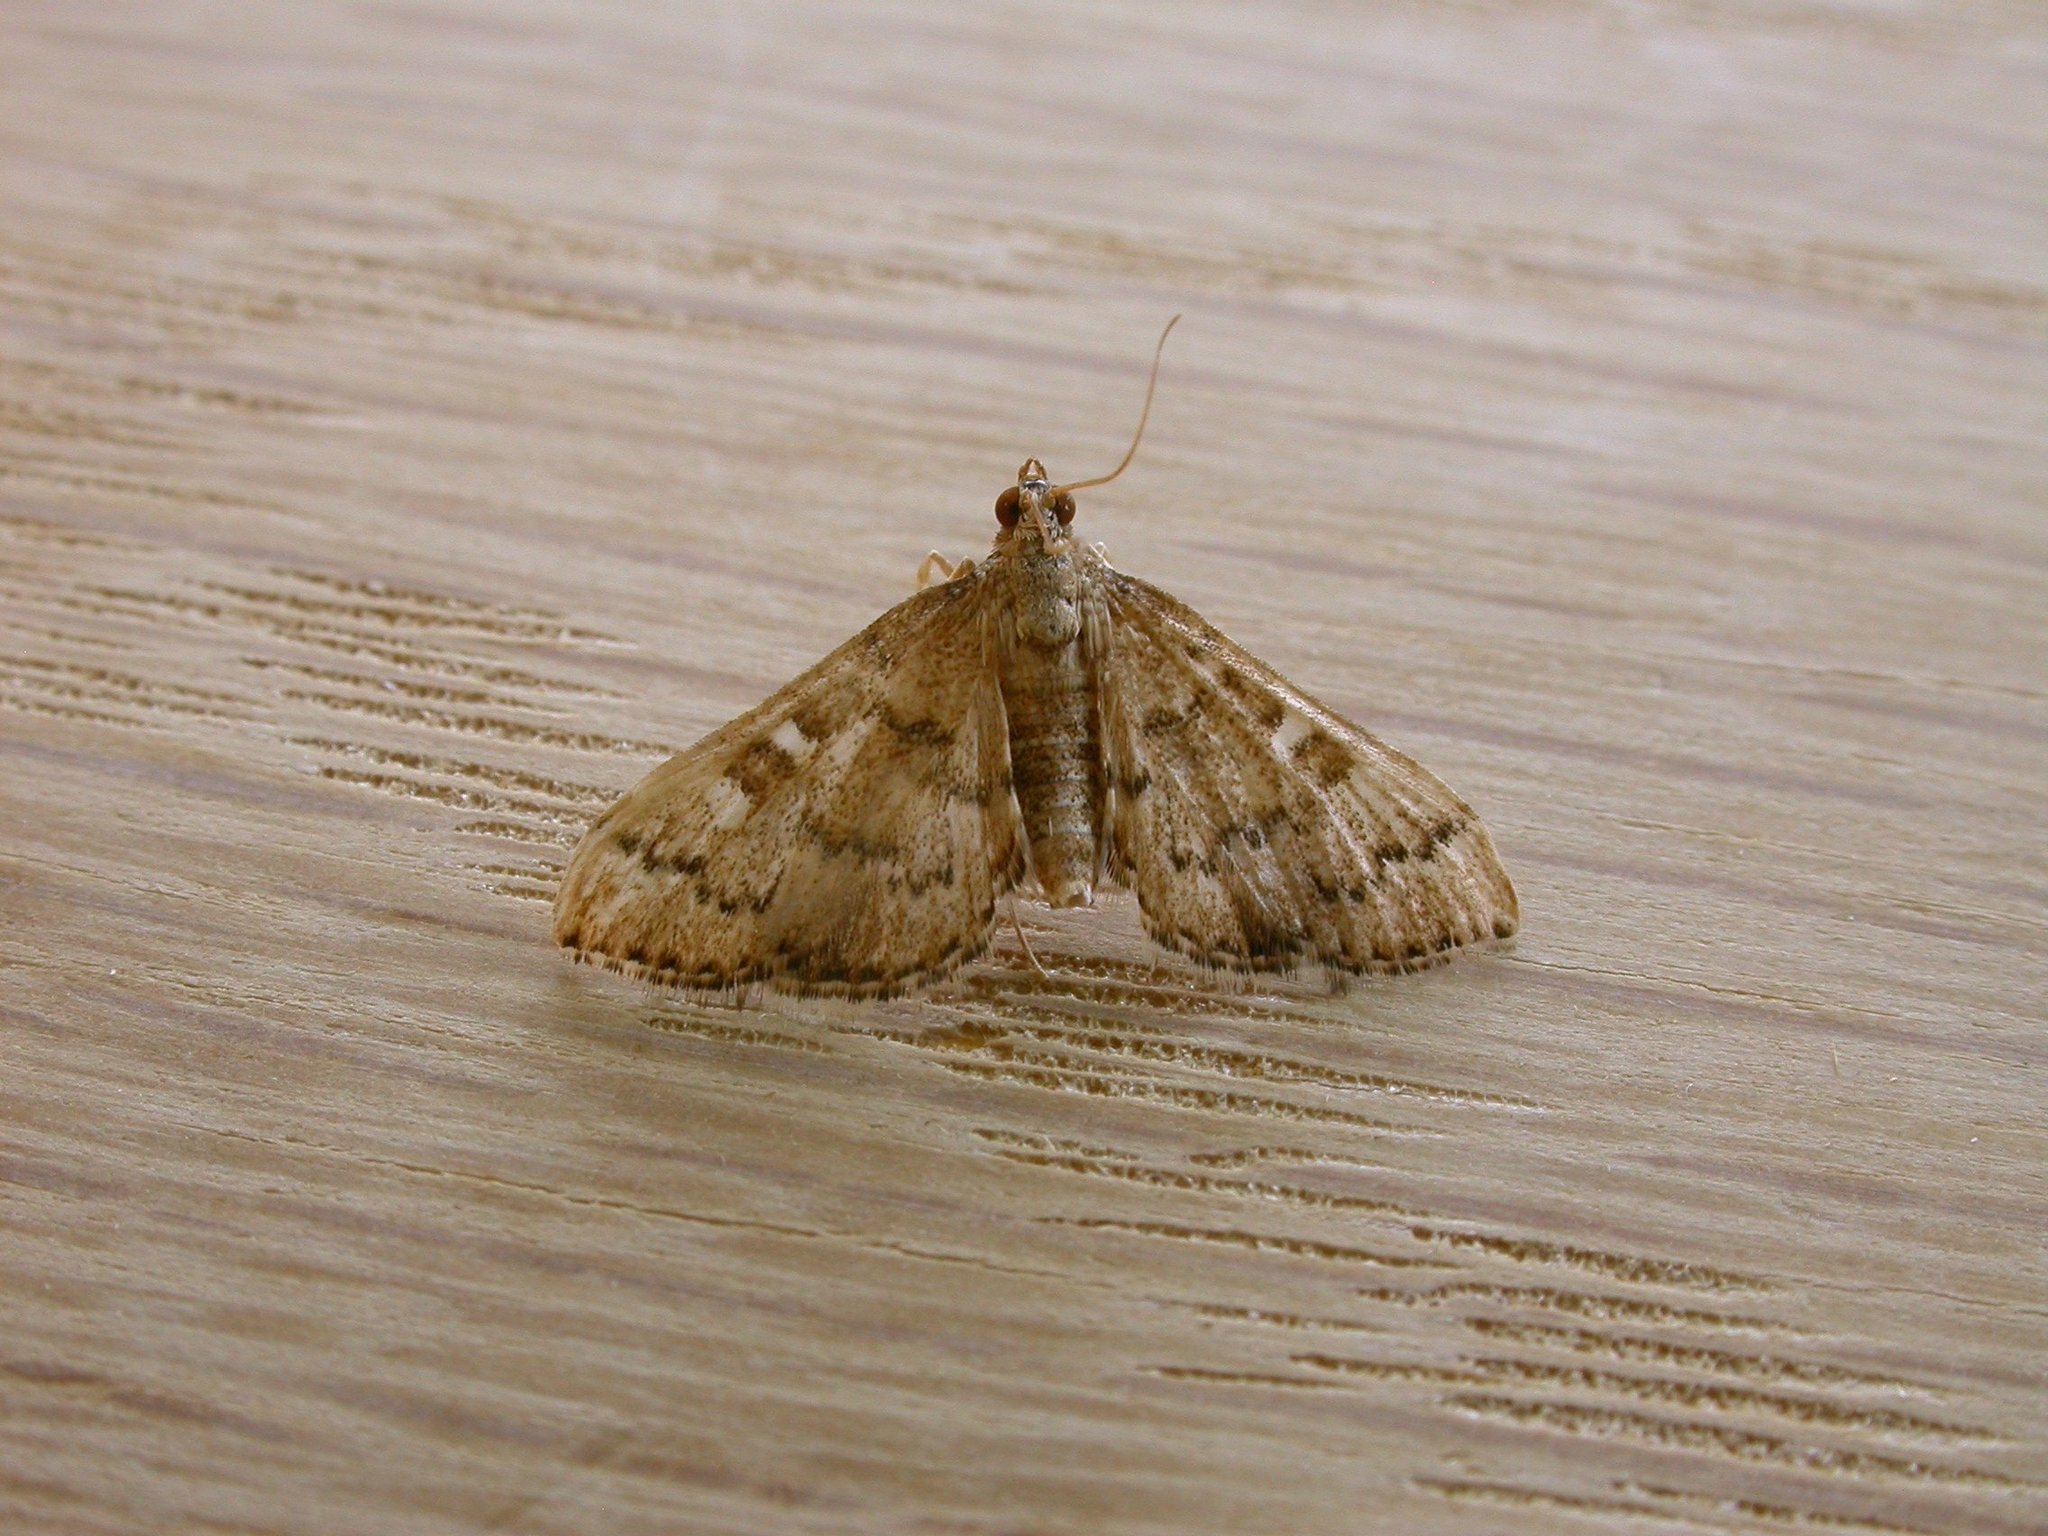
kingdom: Animalia
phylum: Arthropoda
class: Insecta
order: Lepidoptera
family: Crambidae
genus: Nacoleia
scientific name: Nacoleia rhoeoalis
